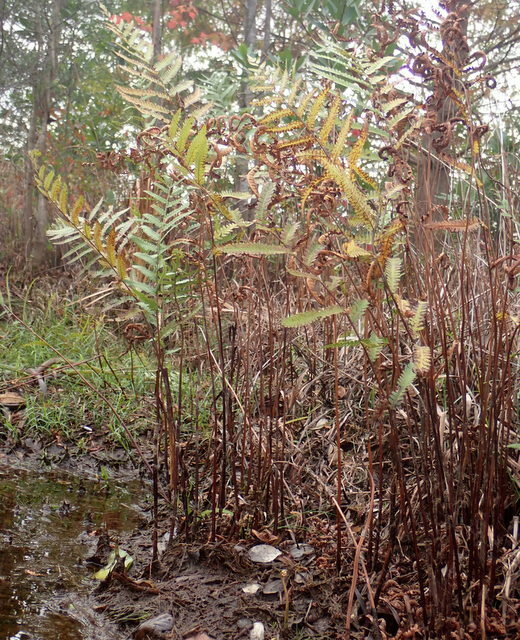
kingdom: Plantae
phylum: Tracheophyta
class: Polypodiopsida
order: Polypodiales
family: Blechnaceae
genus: Anchistea
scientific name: Anchistea virginica
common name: Virginia chain fern
